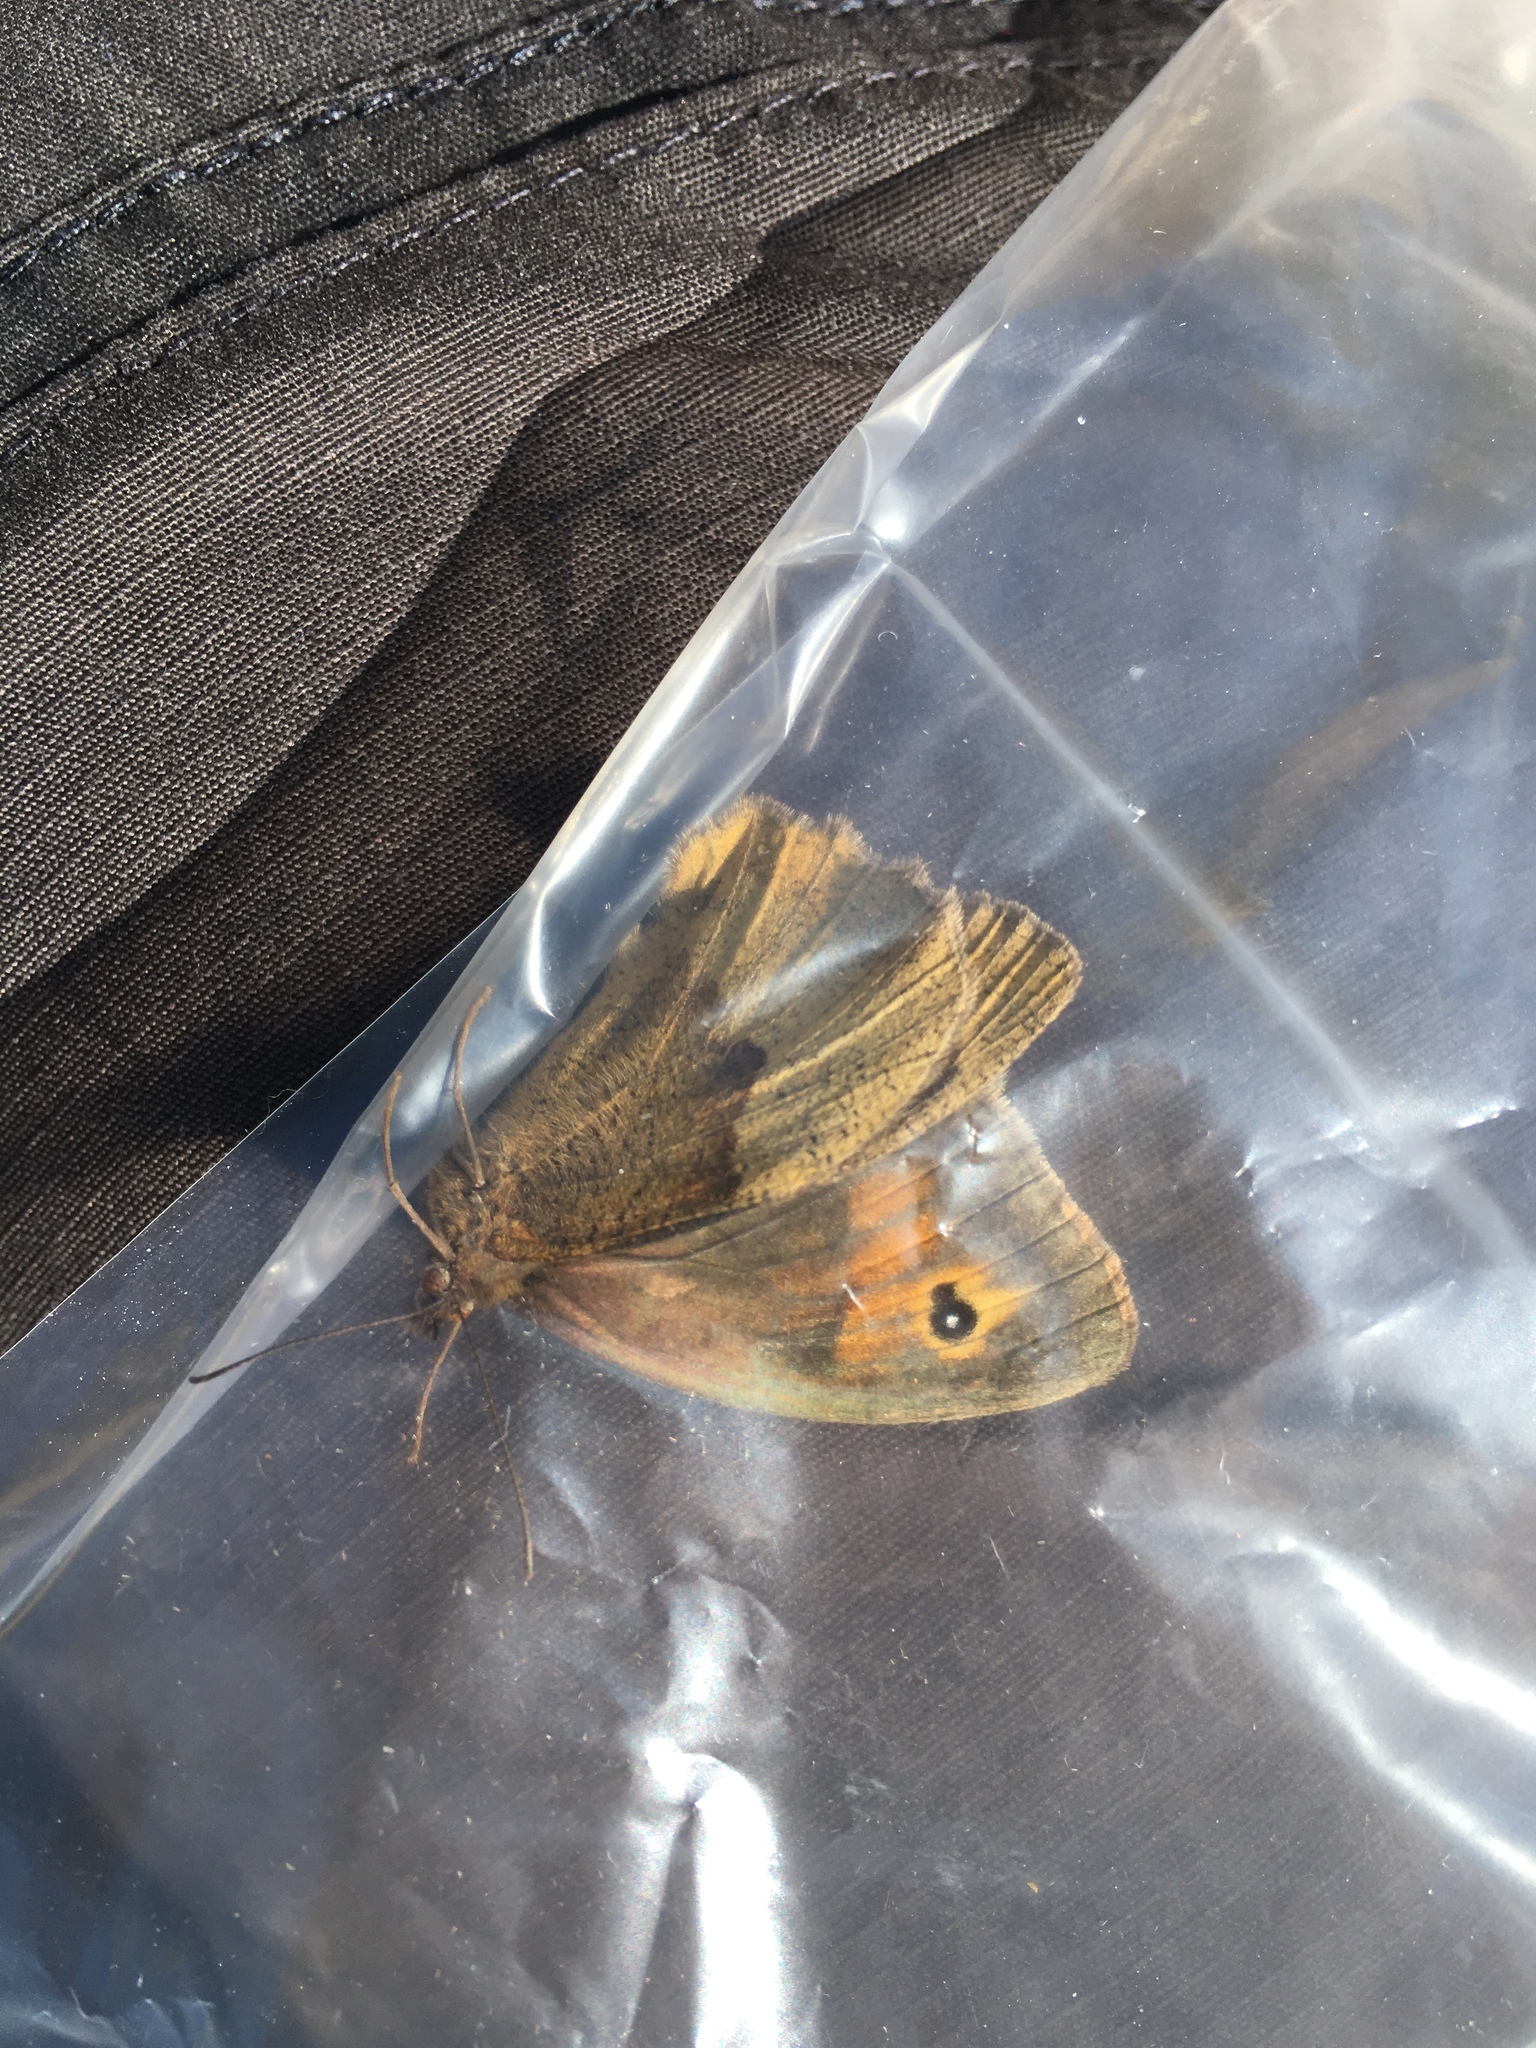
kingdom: Animalia
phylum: Arthropoda
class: Insecta
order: Lepidoptera
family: Nymphalidae
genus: Maniola
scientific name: Maniola jurtina
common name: Meadow brown
